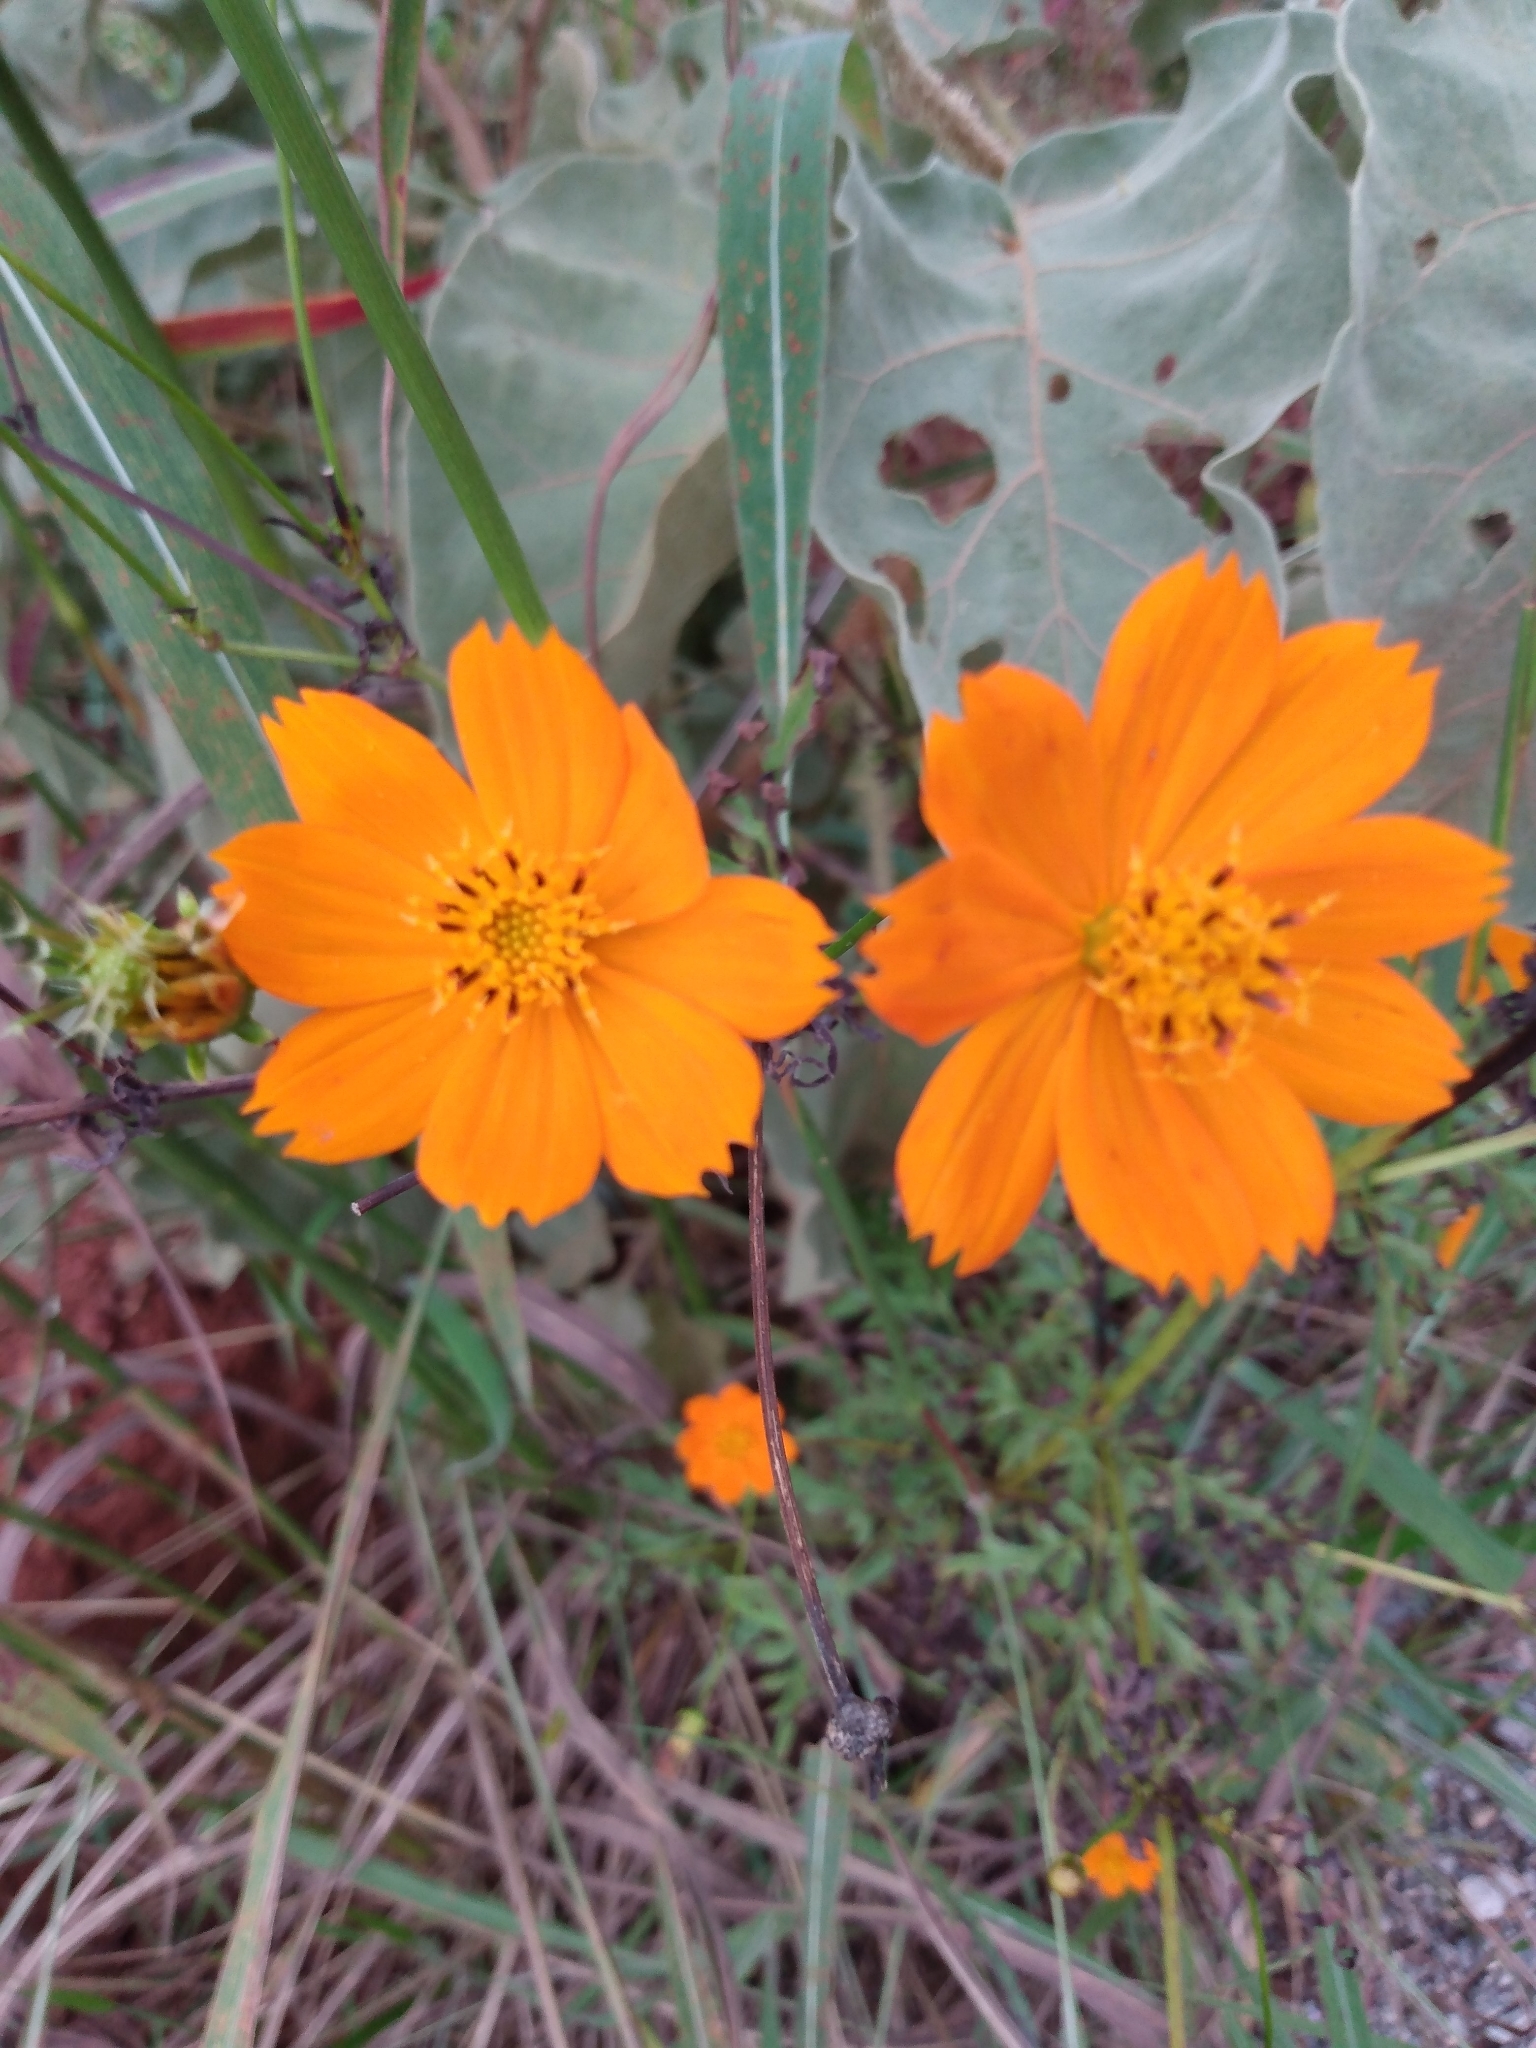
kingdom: Plantae
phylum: Tracheophyta
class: Magnoliopsida
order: Asterales
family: Asteraceae
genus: Cosmos
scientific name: Cosmos sulphureus
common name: Sulphur cosmos
